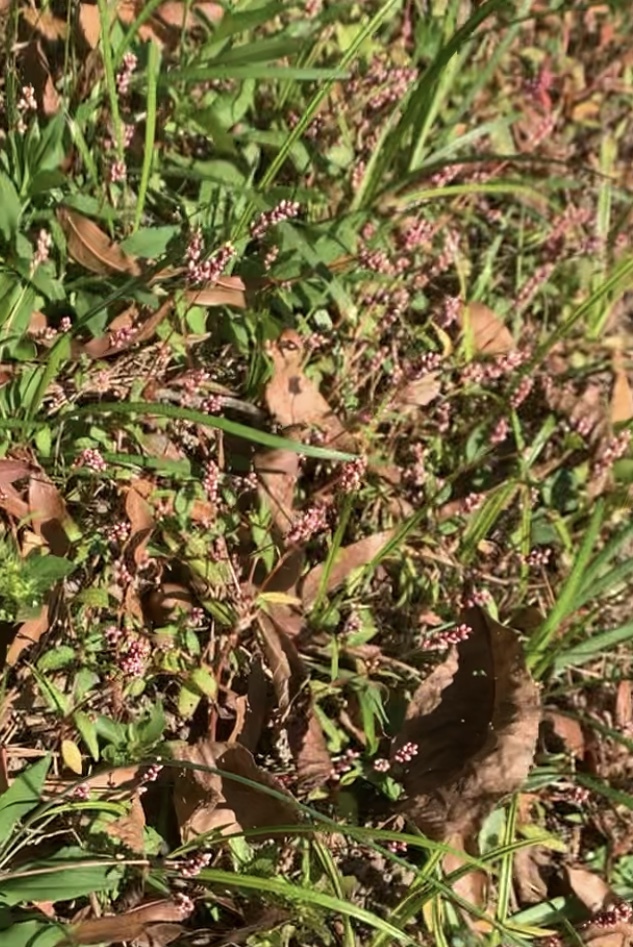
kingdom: Plantae
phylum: Tracheophyta
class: Magnoliopsida
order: Caryophyllales
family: Polygonaceae
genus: Persicaria
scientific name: Persicaria longiseta
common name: Bristly lady's-thumb
